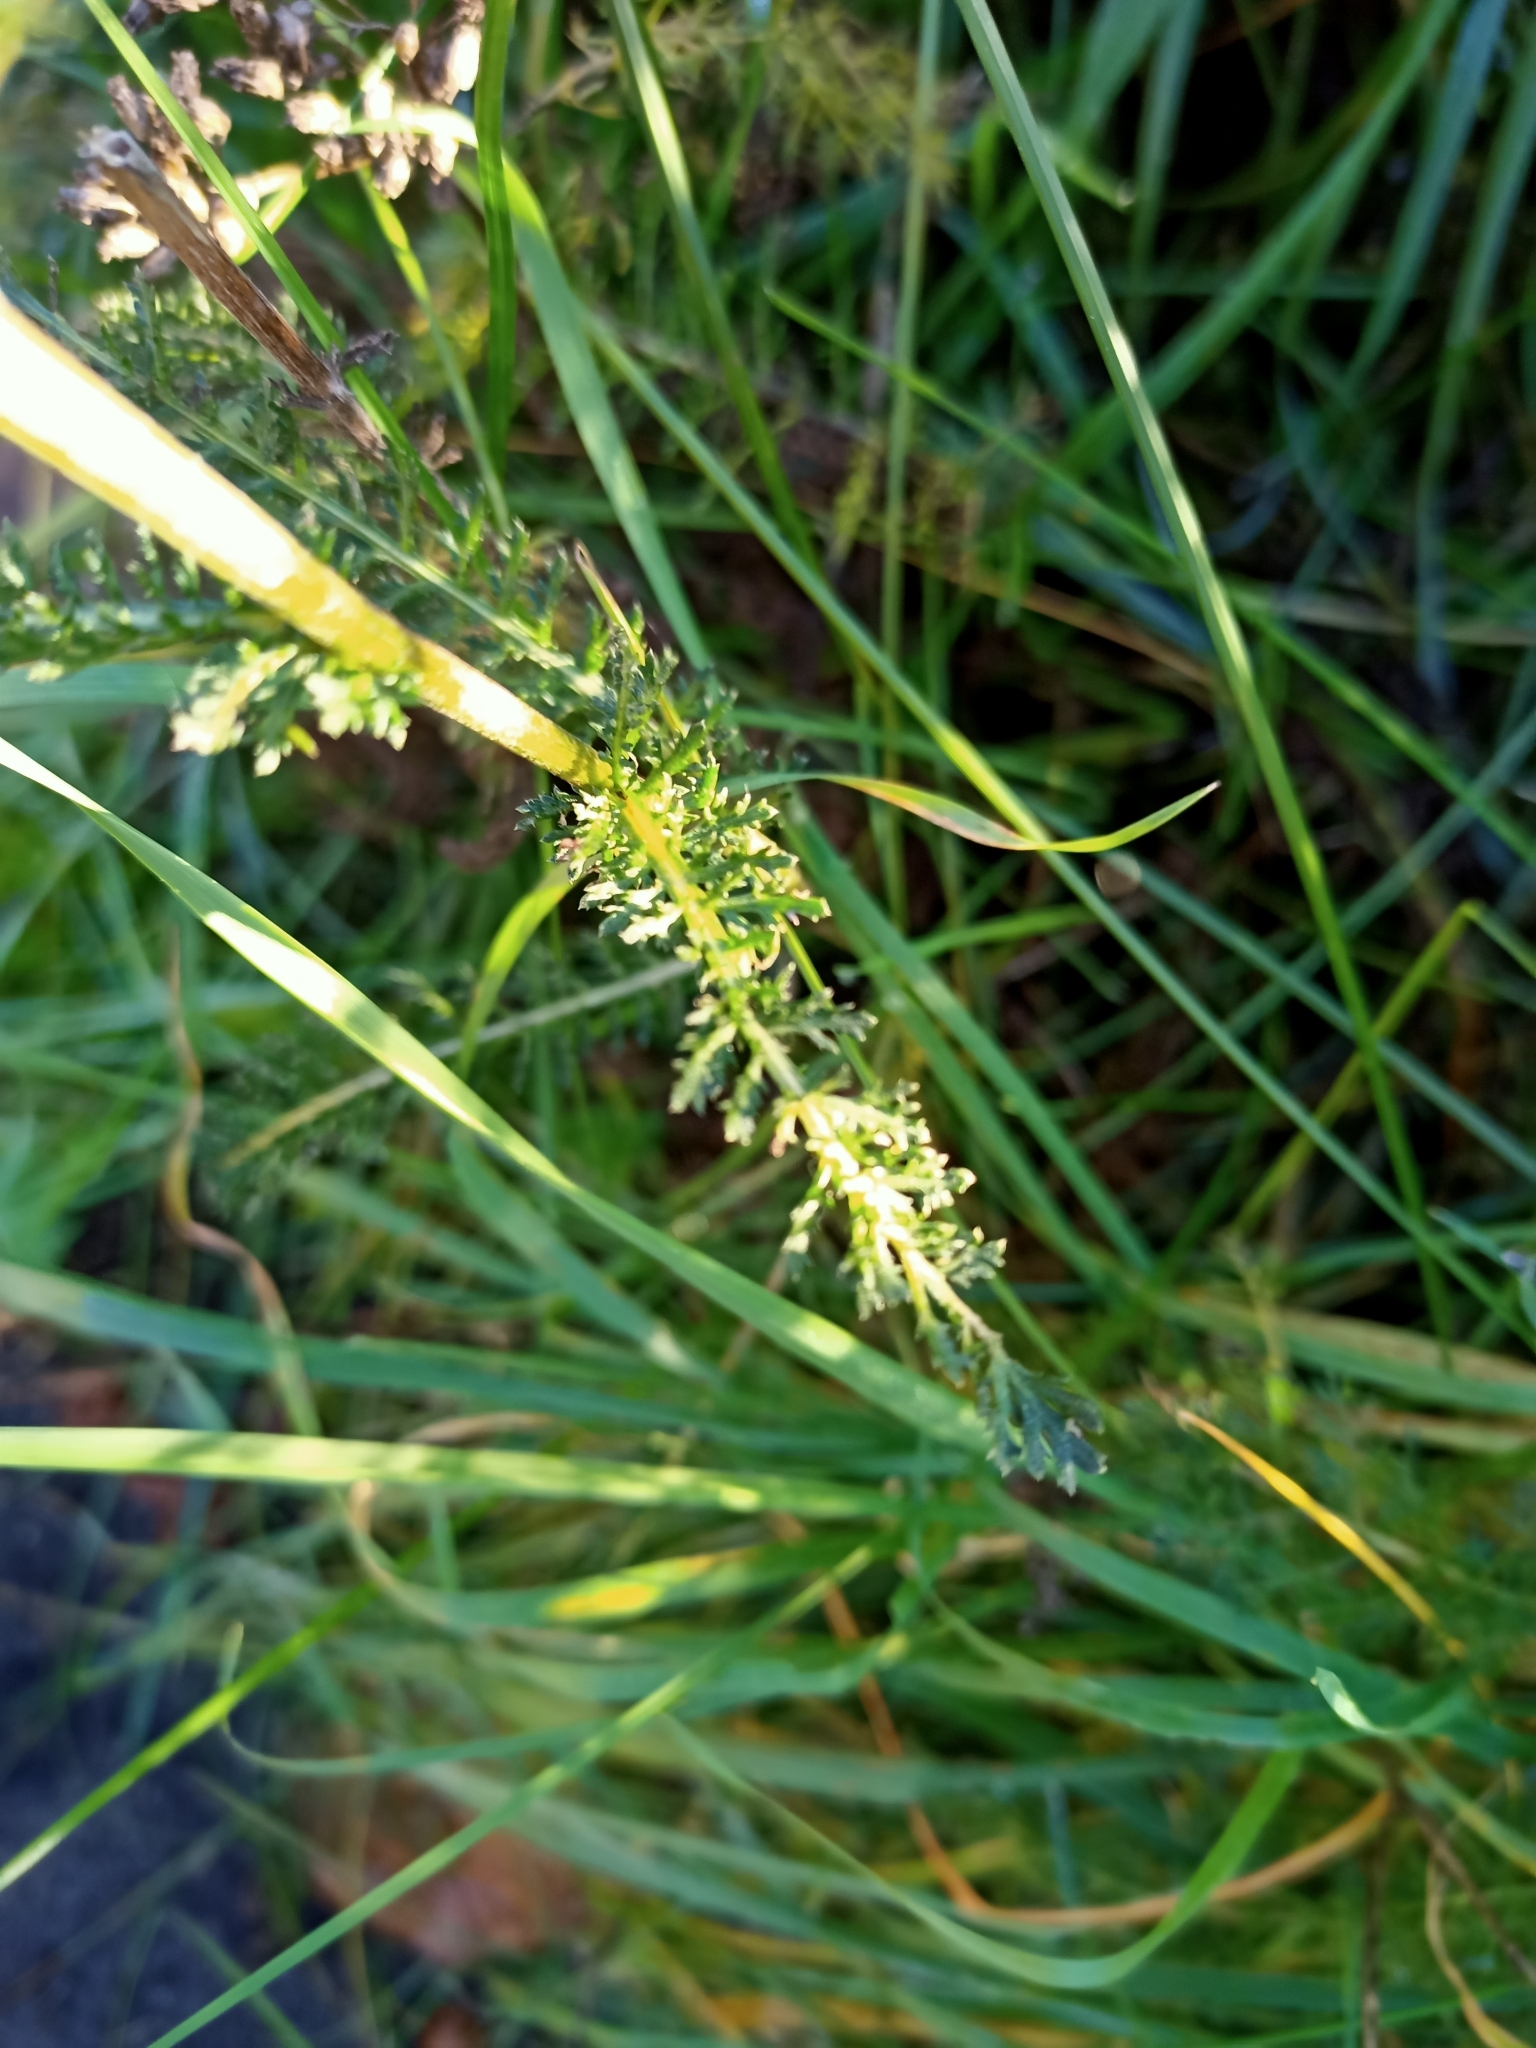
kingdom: Plantae
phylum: Tracheophyta
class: Magnoliopsida
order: Asterales
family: Asteraceae
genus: Achillea
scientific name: Achillea millefolium
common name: Yarrow
